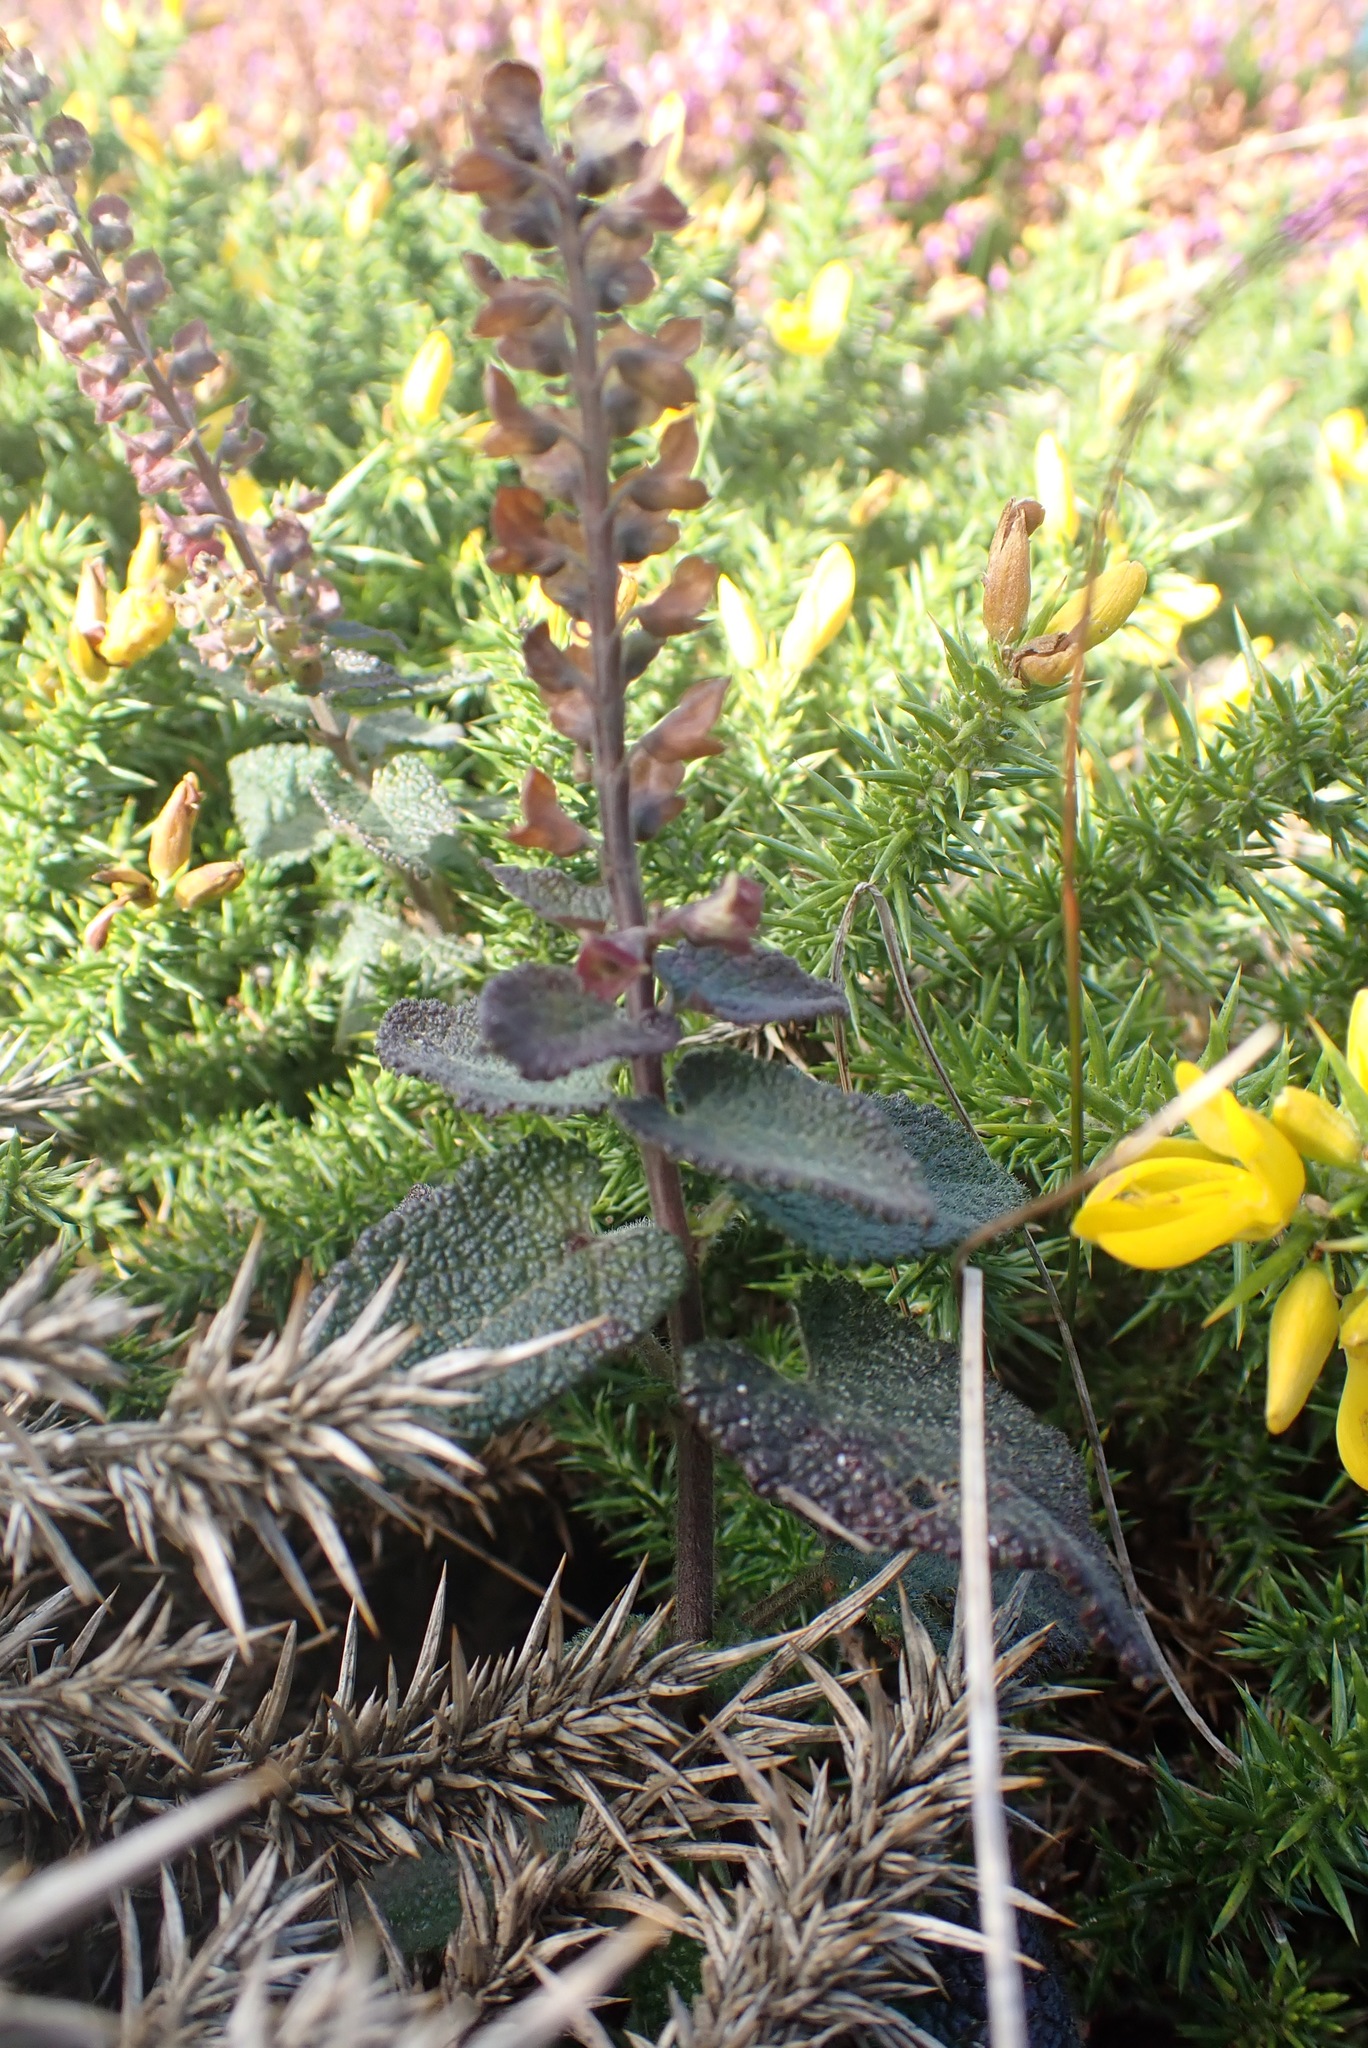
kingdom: Plantae
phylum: Tracheophyta
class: Magnoliopsida
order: Lamiales
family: Lamiaceae
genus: Teucrium
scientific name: Teucrium scorodonia
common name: Woodland germander
